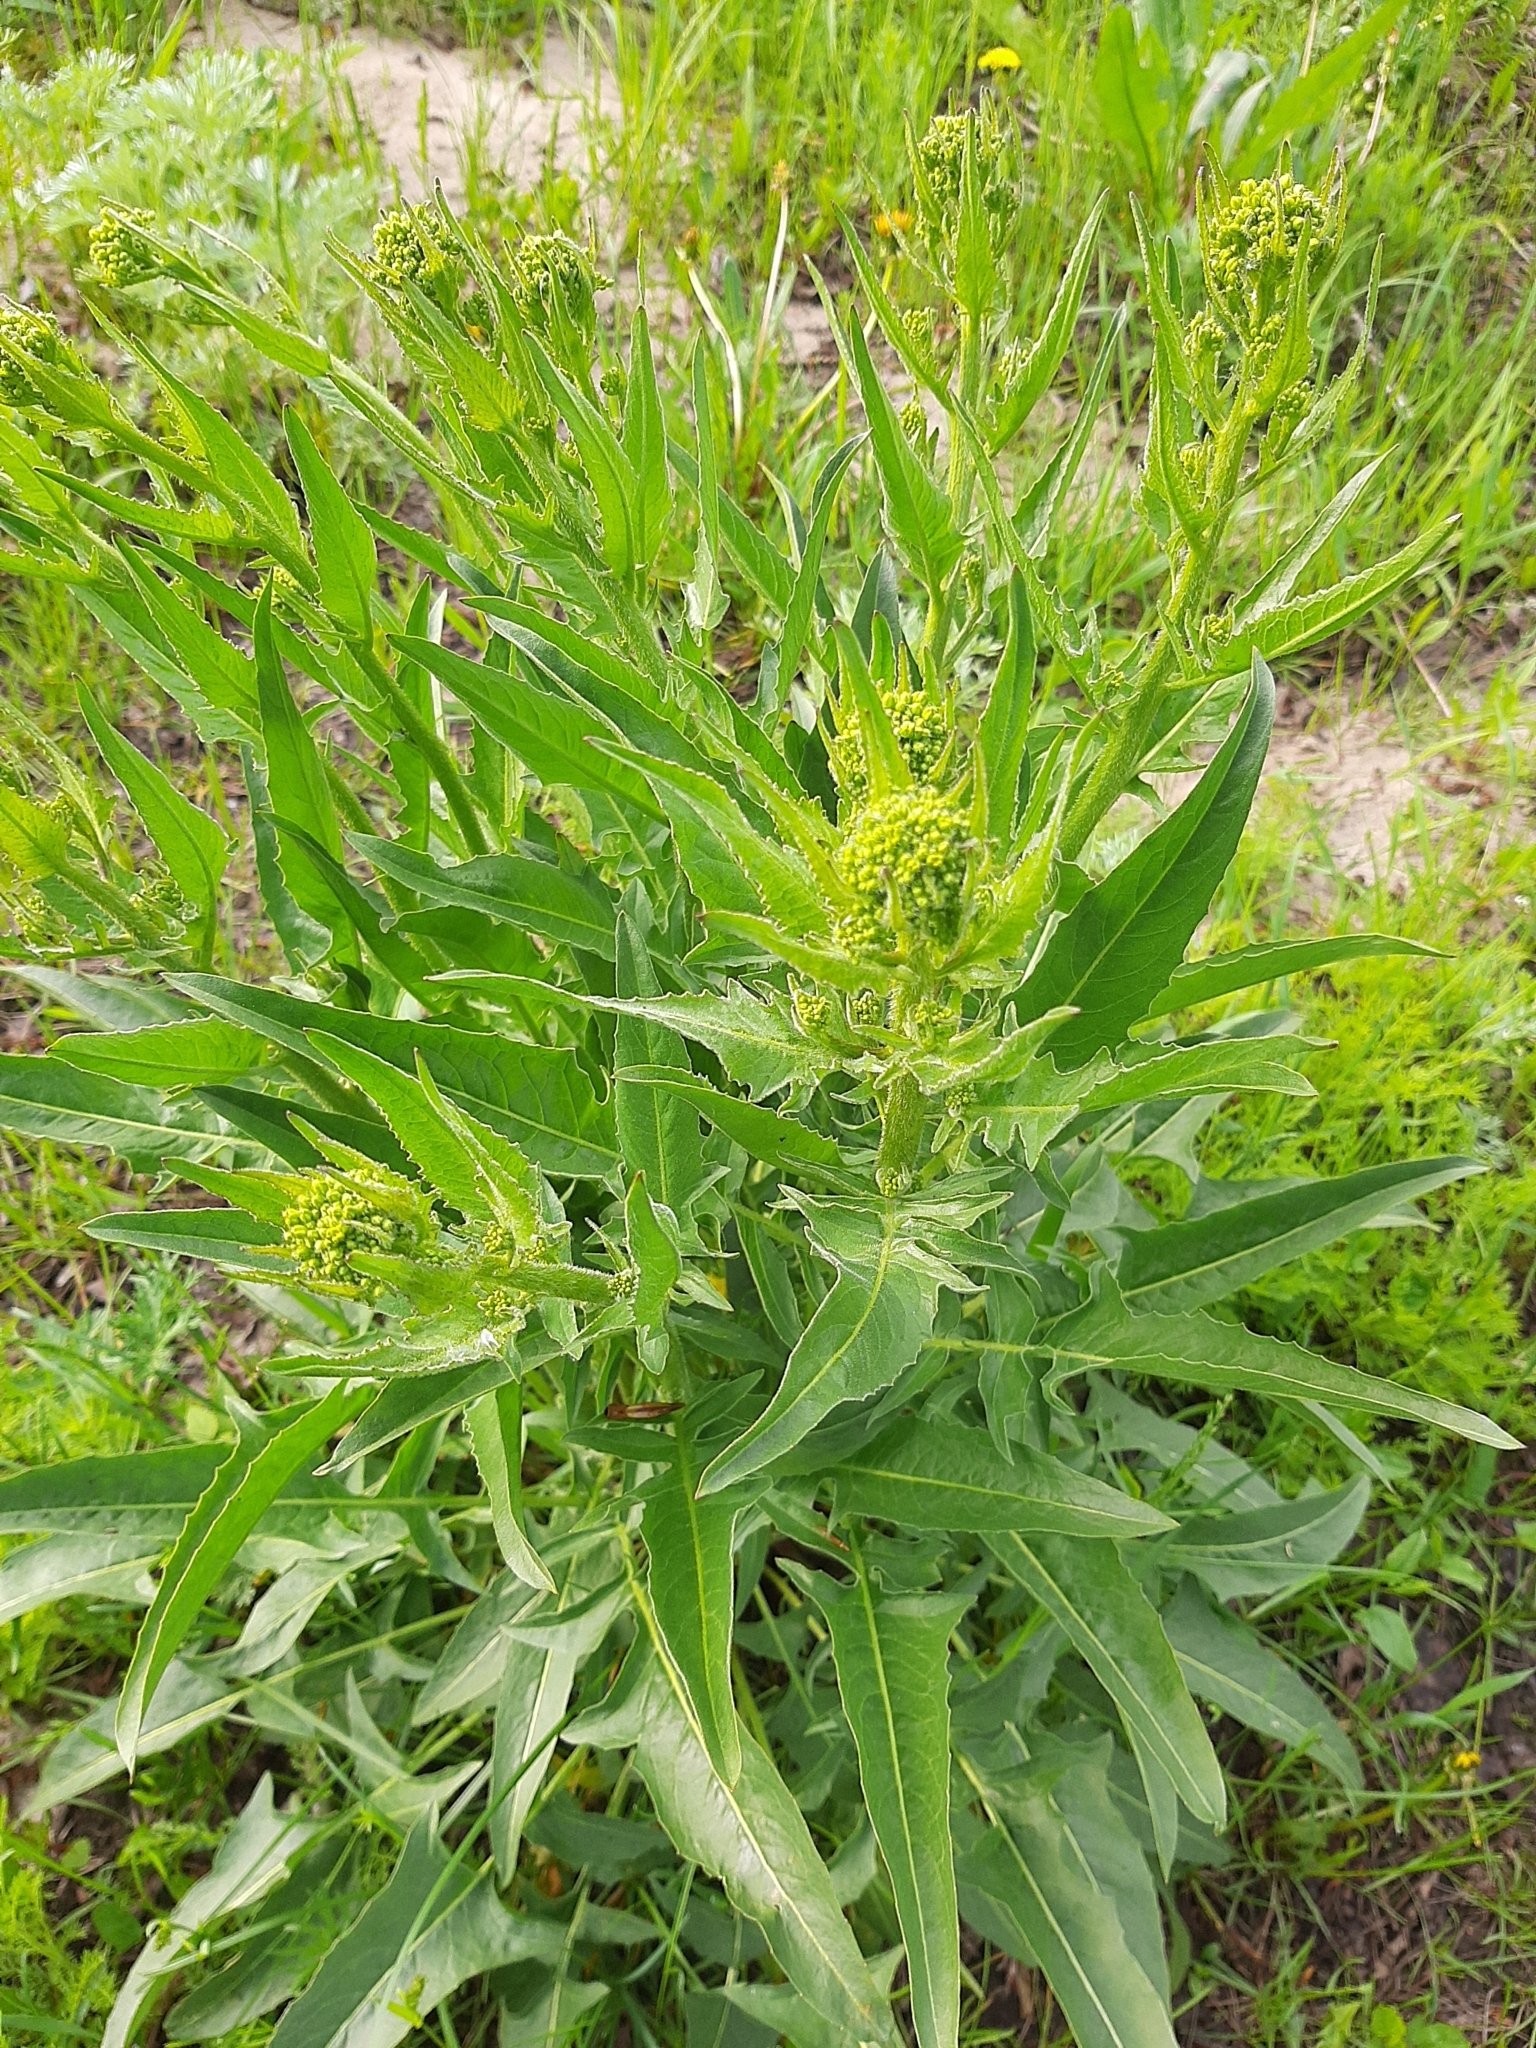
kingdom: Plantae
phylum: Tracheophyta
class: Magnoliopsida
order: Brassicales
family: Brassicaceae
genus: Bunias
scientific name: Bunias orientalis
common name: Warty-cabbage
